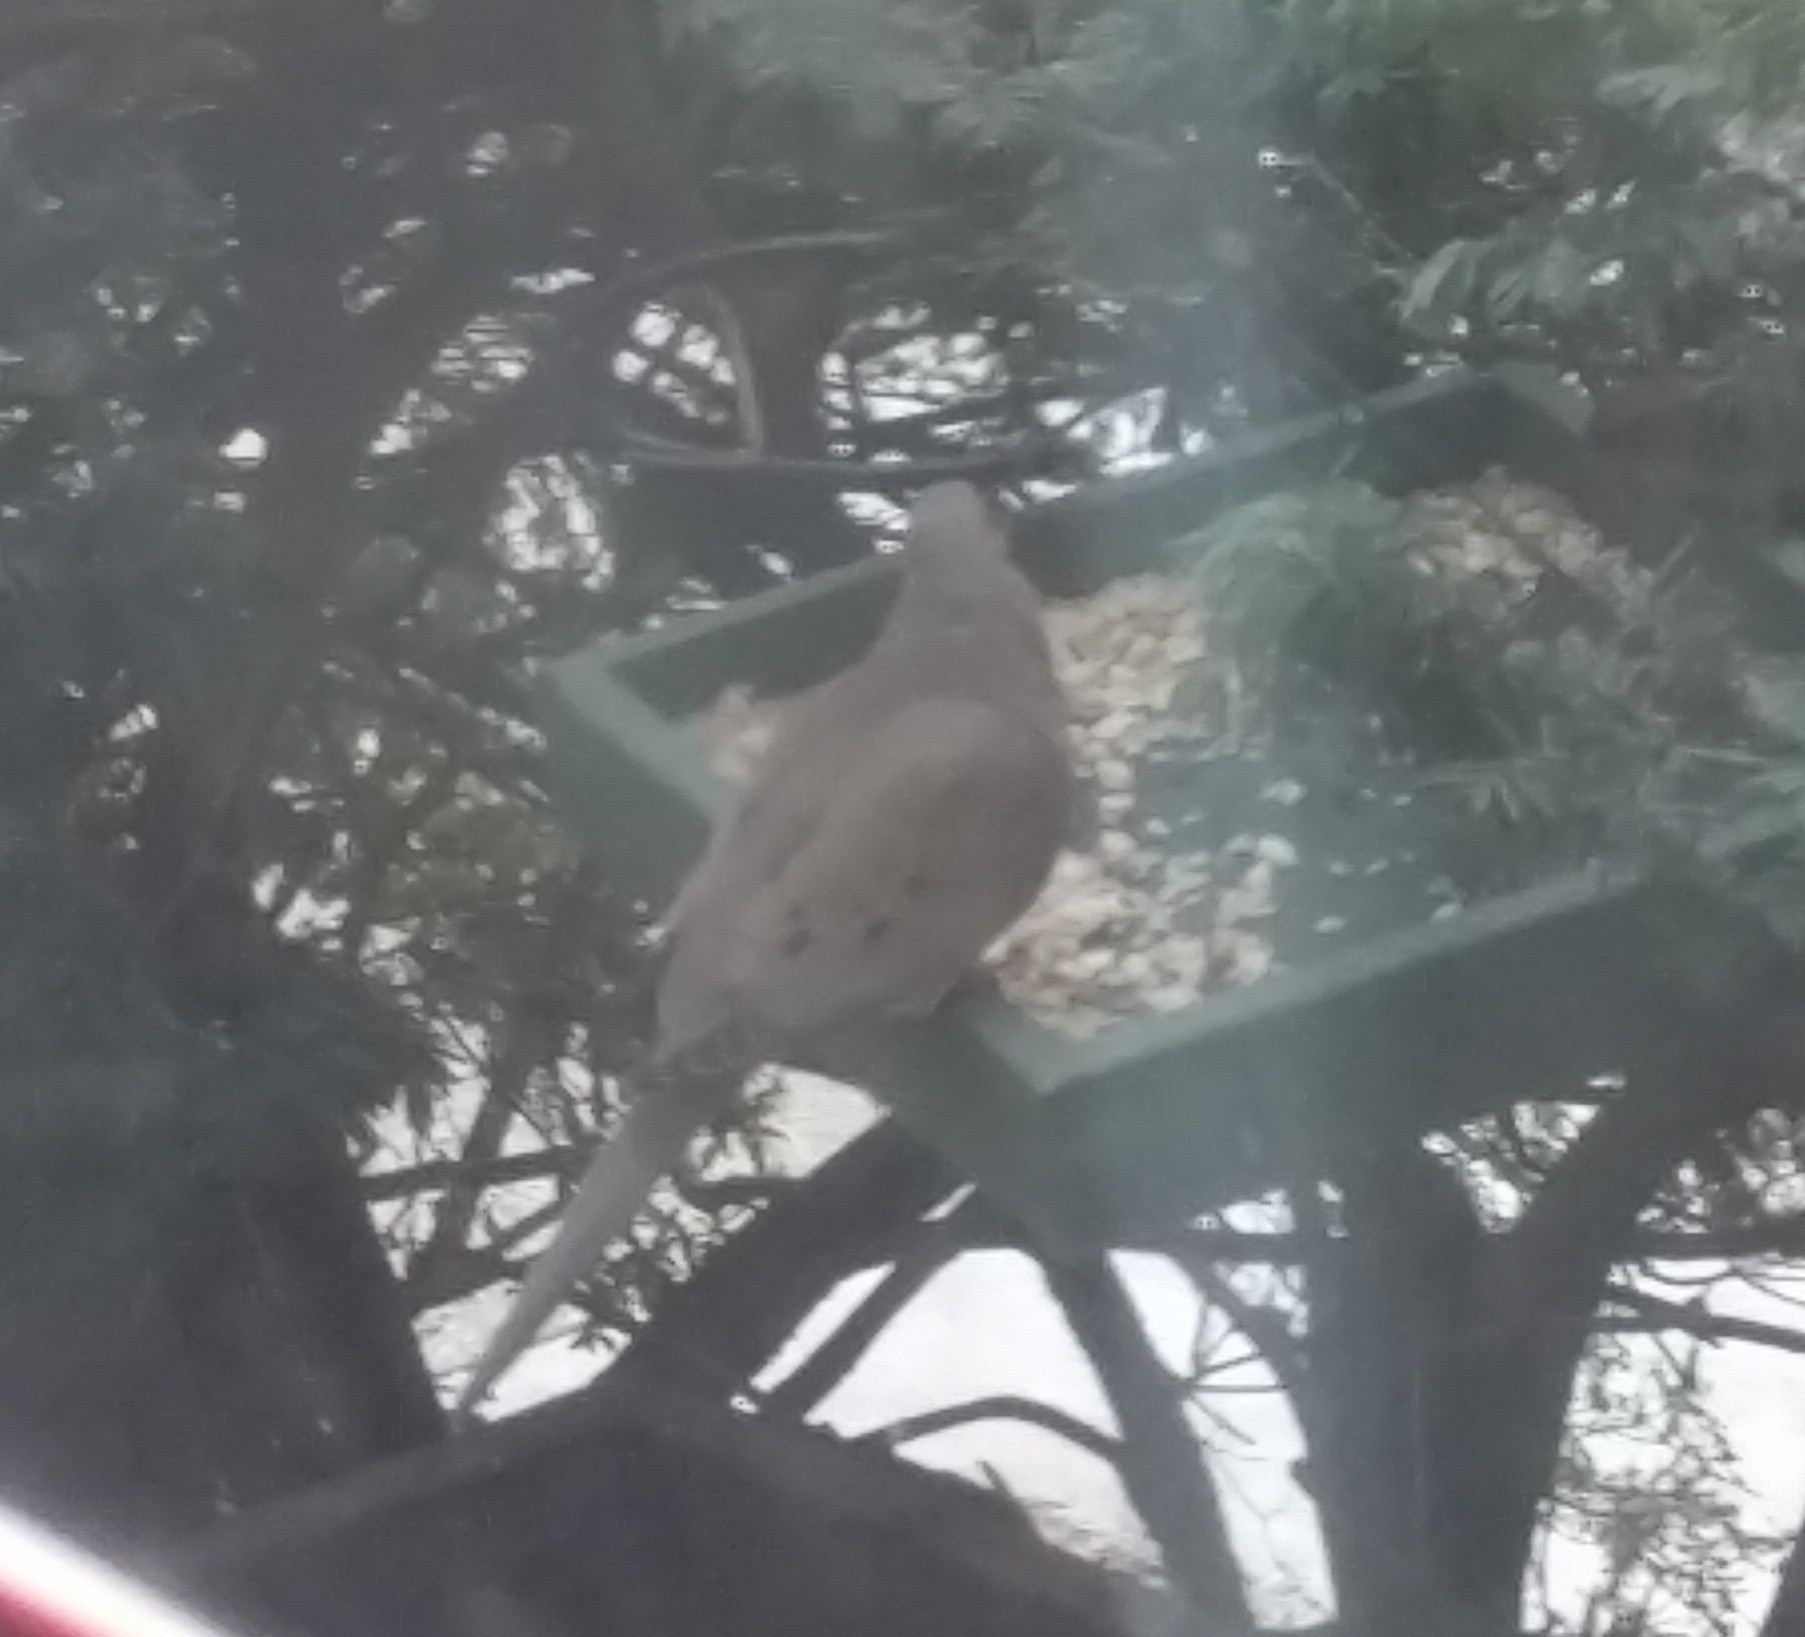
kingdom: Animalia
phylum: Chordata
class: Aves
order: Columbiformes
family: Columbidae
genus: Zenaida
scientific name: Zenaida macroura
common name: Mourning dove
